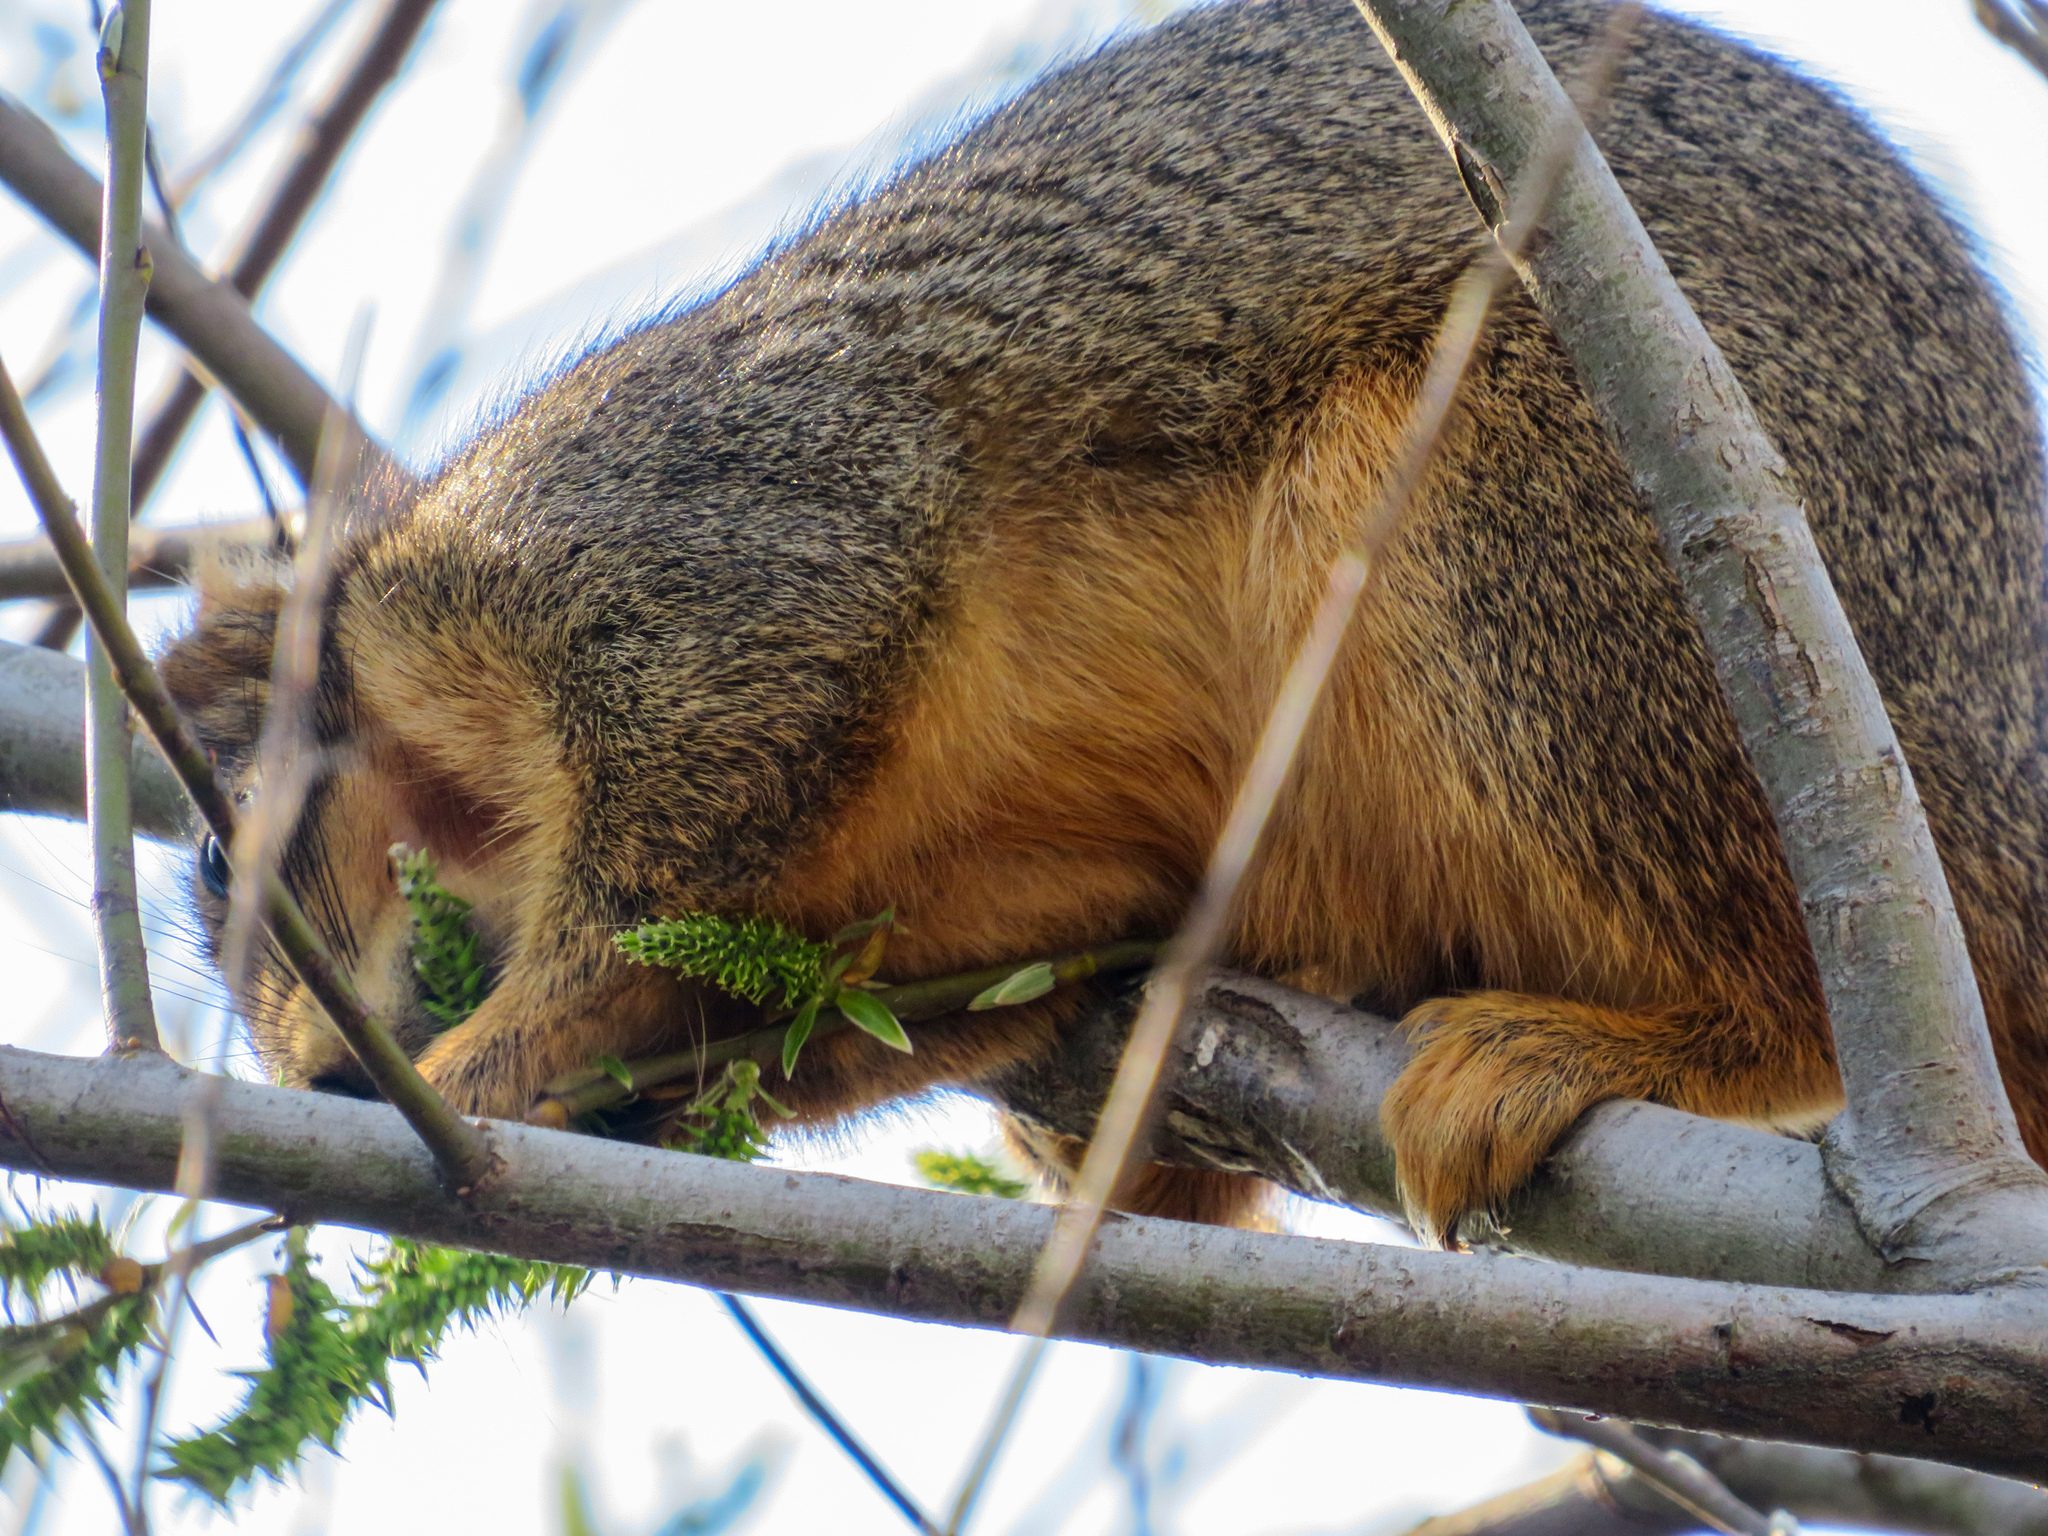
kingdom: Animalia
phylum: Chordata
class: Mammalia
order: Rodentia
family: Sciuridae
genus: Sciurus
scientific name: Sciurus niger
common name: Fox squirrel
